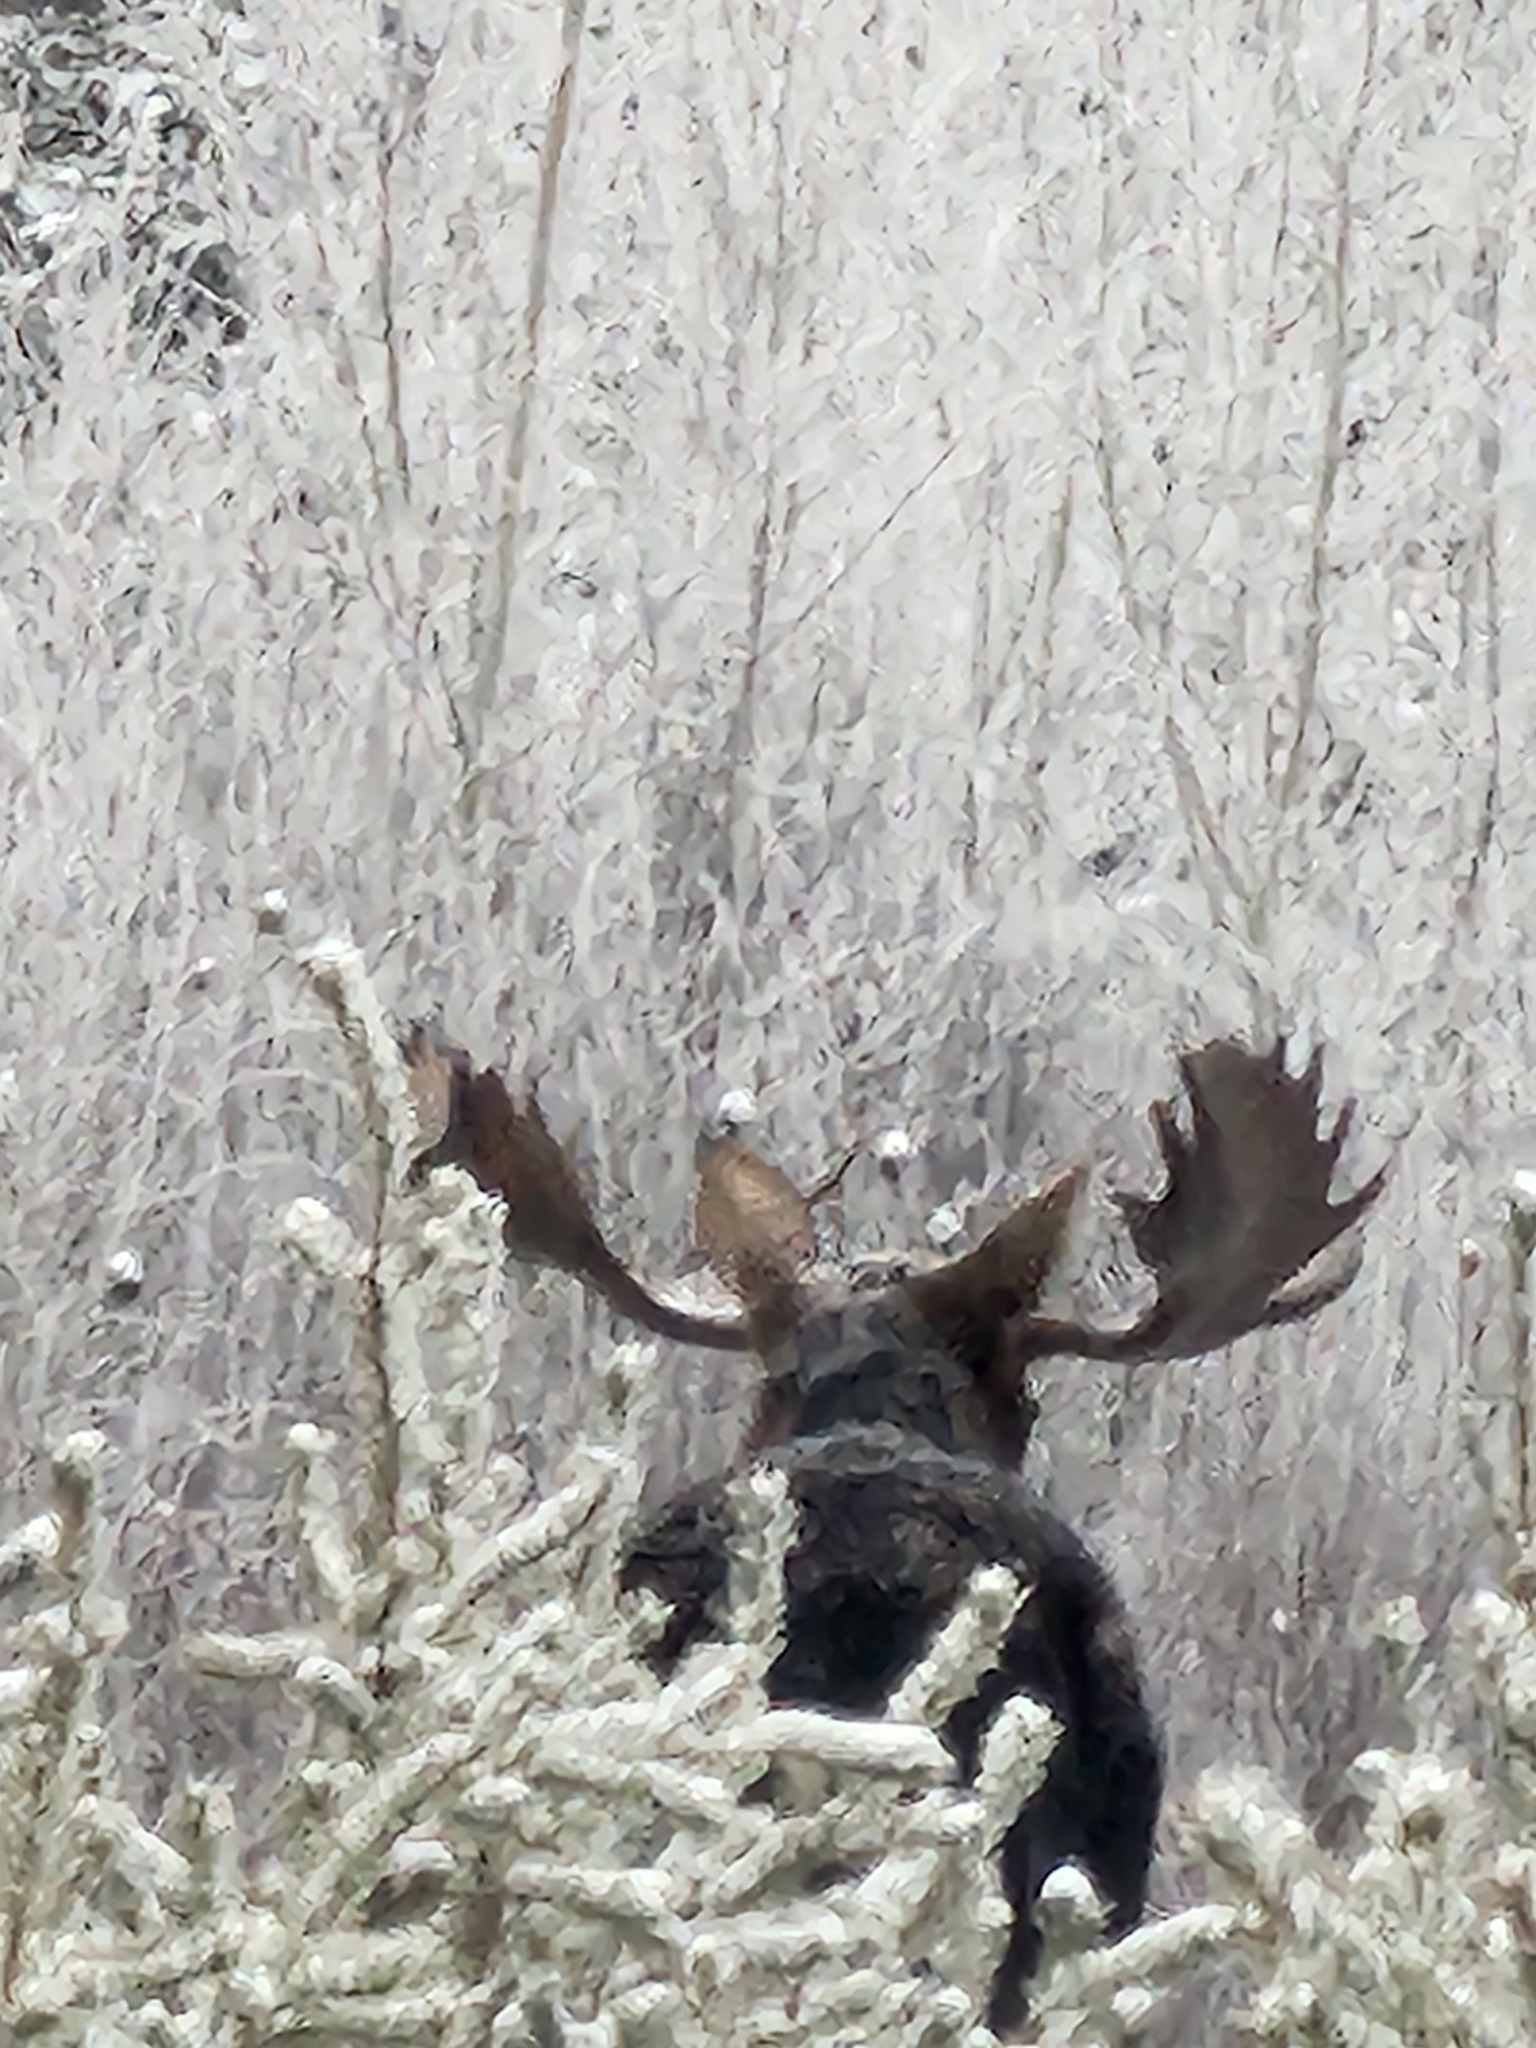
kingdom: Animalia
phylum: Chordata
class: Mammalia
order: Artiodactyla
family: Cervidae
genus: Alces
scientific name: Alces alces
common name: Moose
